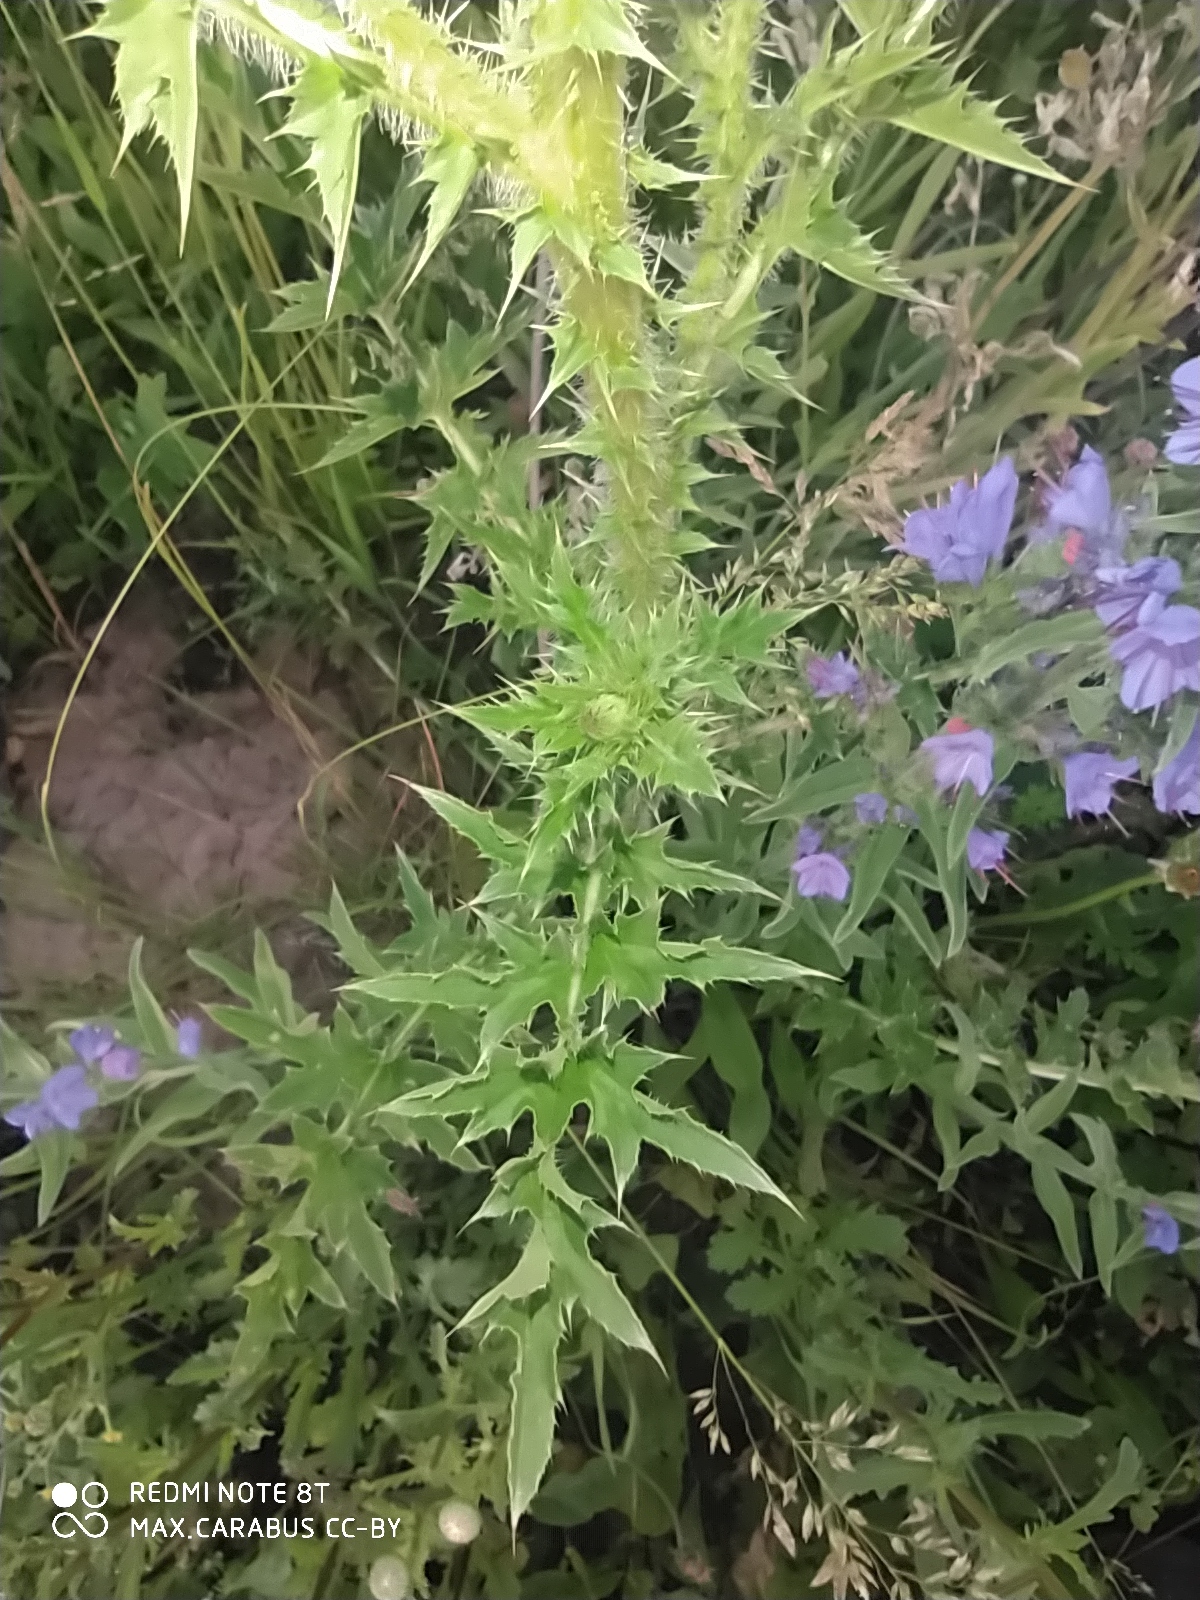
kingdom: Plantae
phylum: Tracheophyta
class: Magnoliopsida
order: Asterales
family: Asteraceae
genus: Carduus
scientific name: Carduus acanthoides
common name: Plumeless thistle
